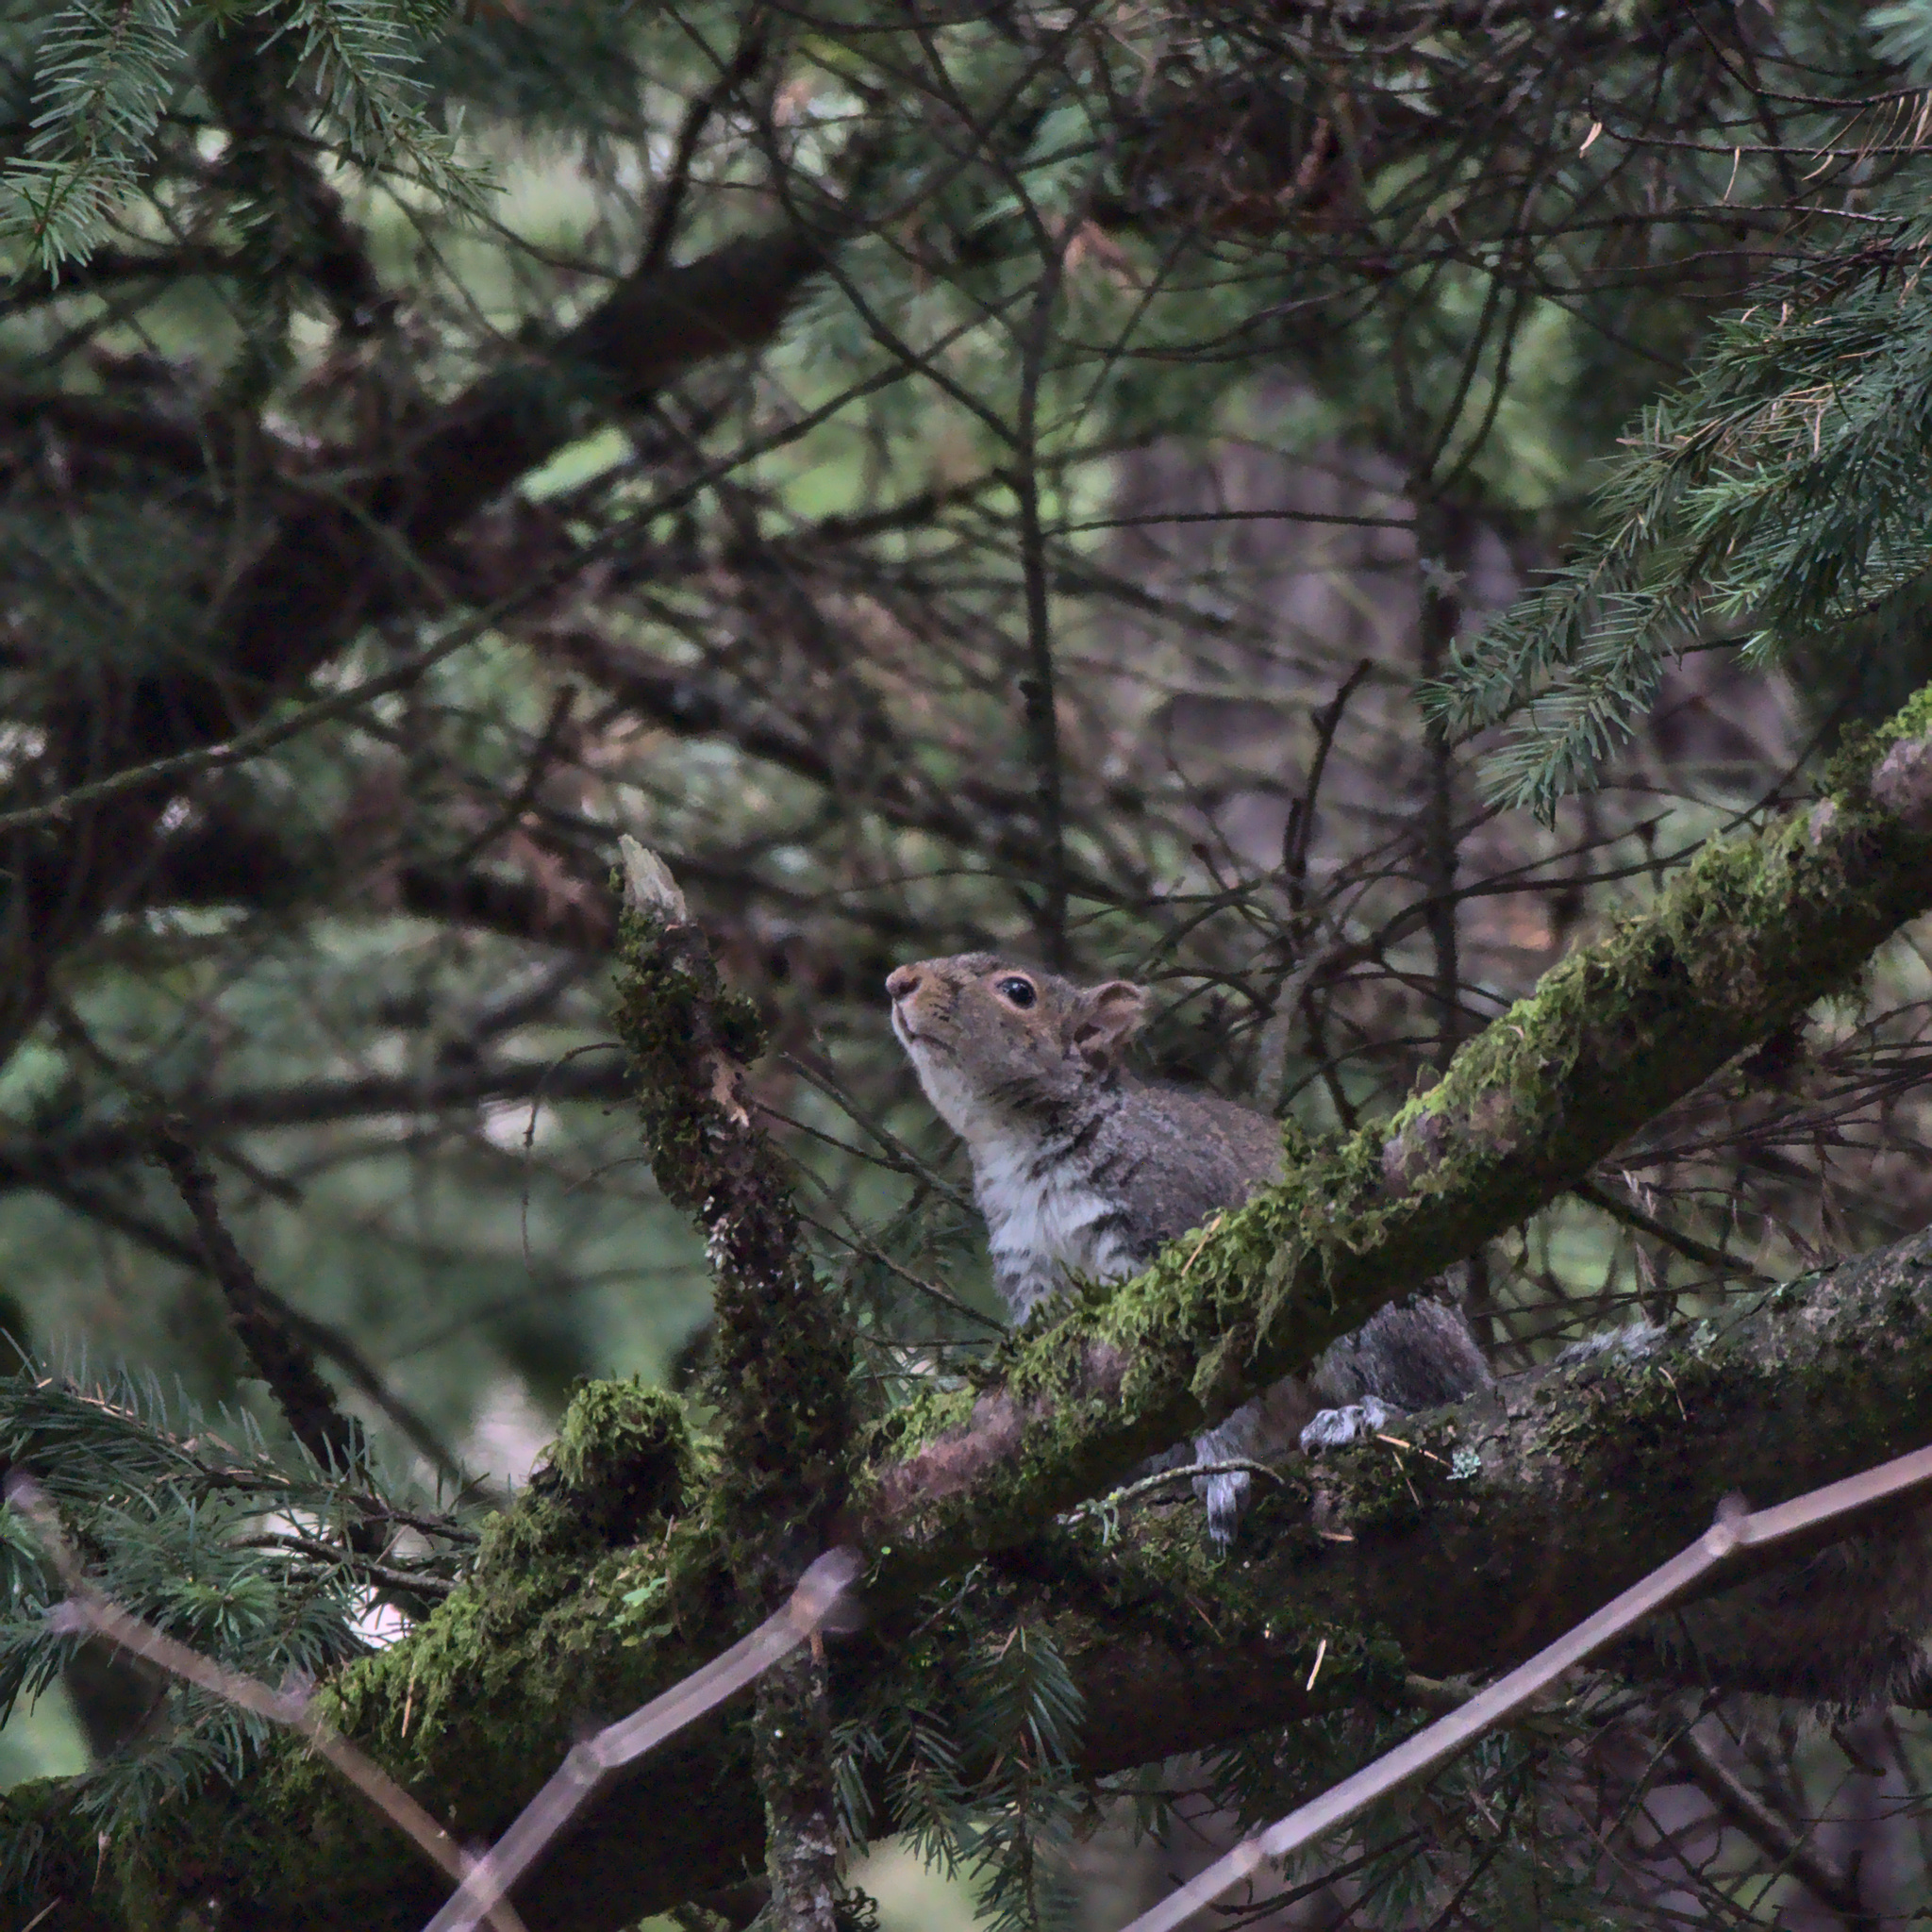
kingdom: Animalia
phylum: Chordata
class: Mammalia
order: Rodentia
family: Sciuridae
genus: Sciurus
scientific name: Sciurus carolinensis
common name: Eastern gray squirrel
